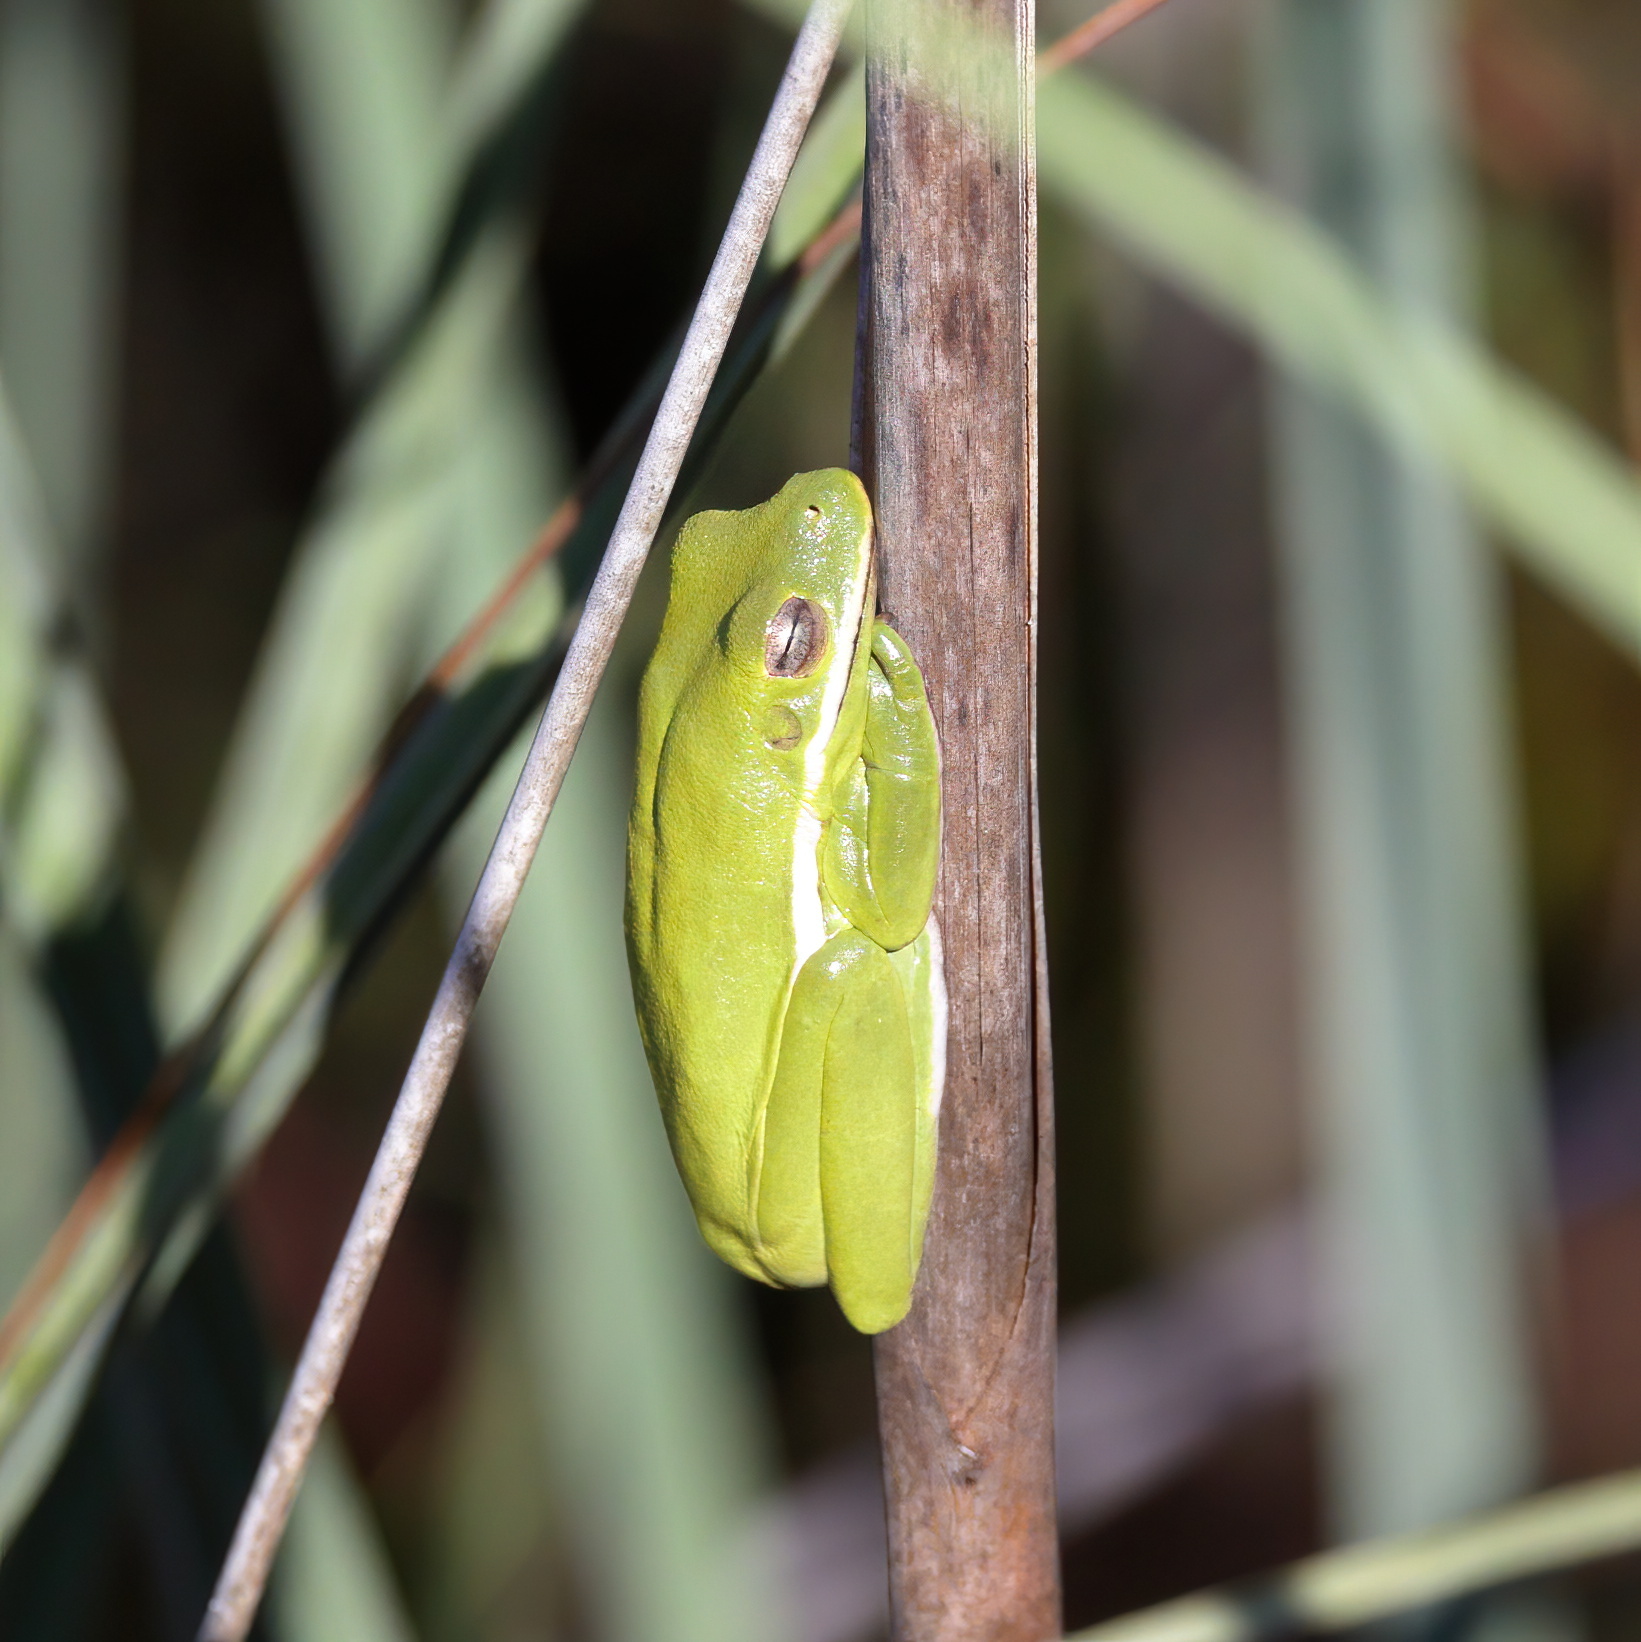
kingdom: Animalia
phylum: Chordata
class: Amphibia
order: Anura
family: Hylidae
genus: Dryophytes
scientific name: Dryophytes cinereus
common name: Green treefrog
